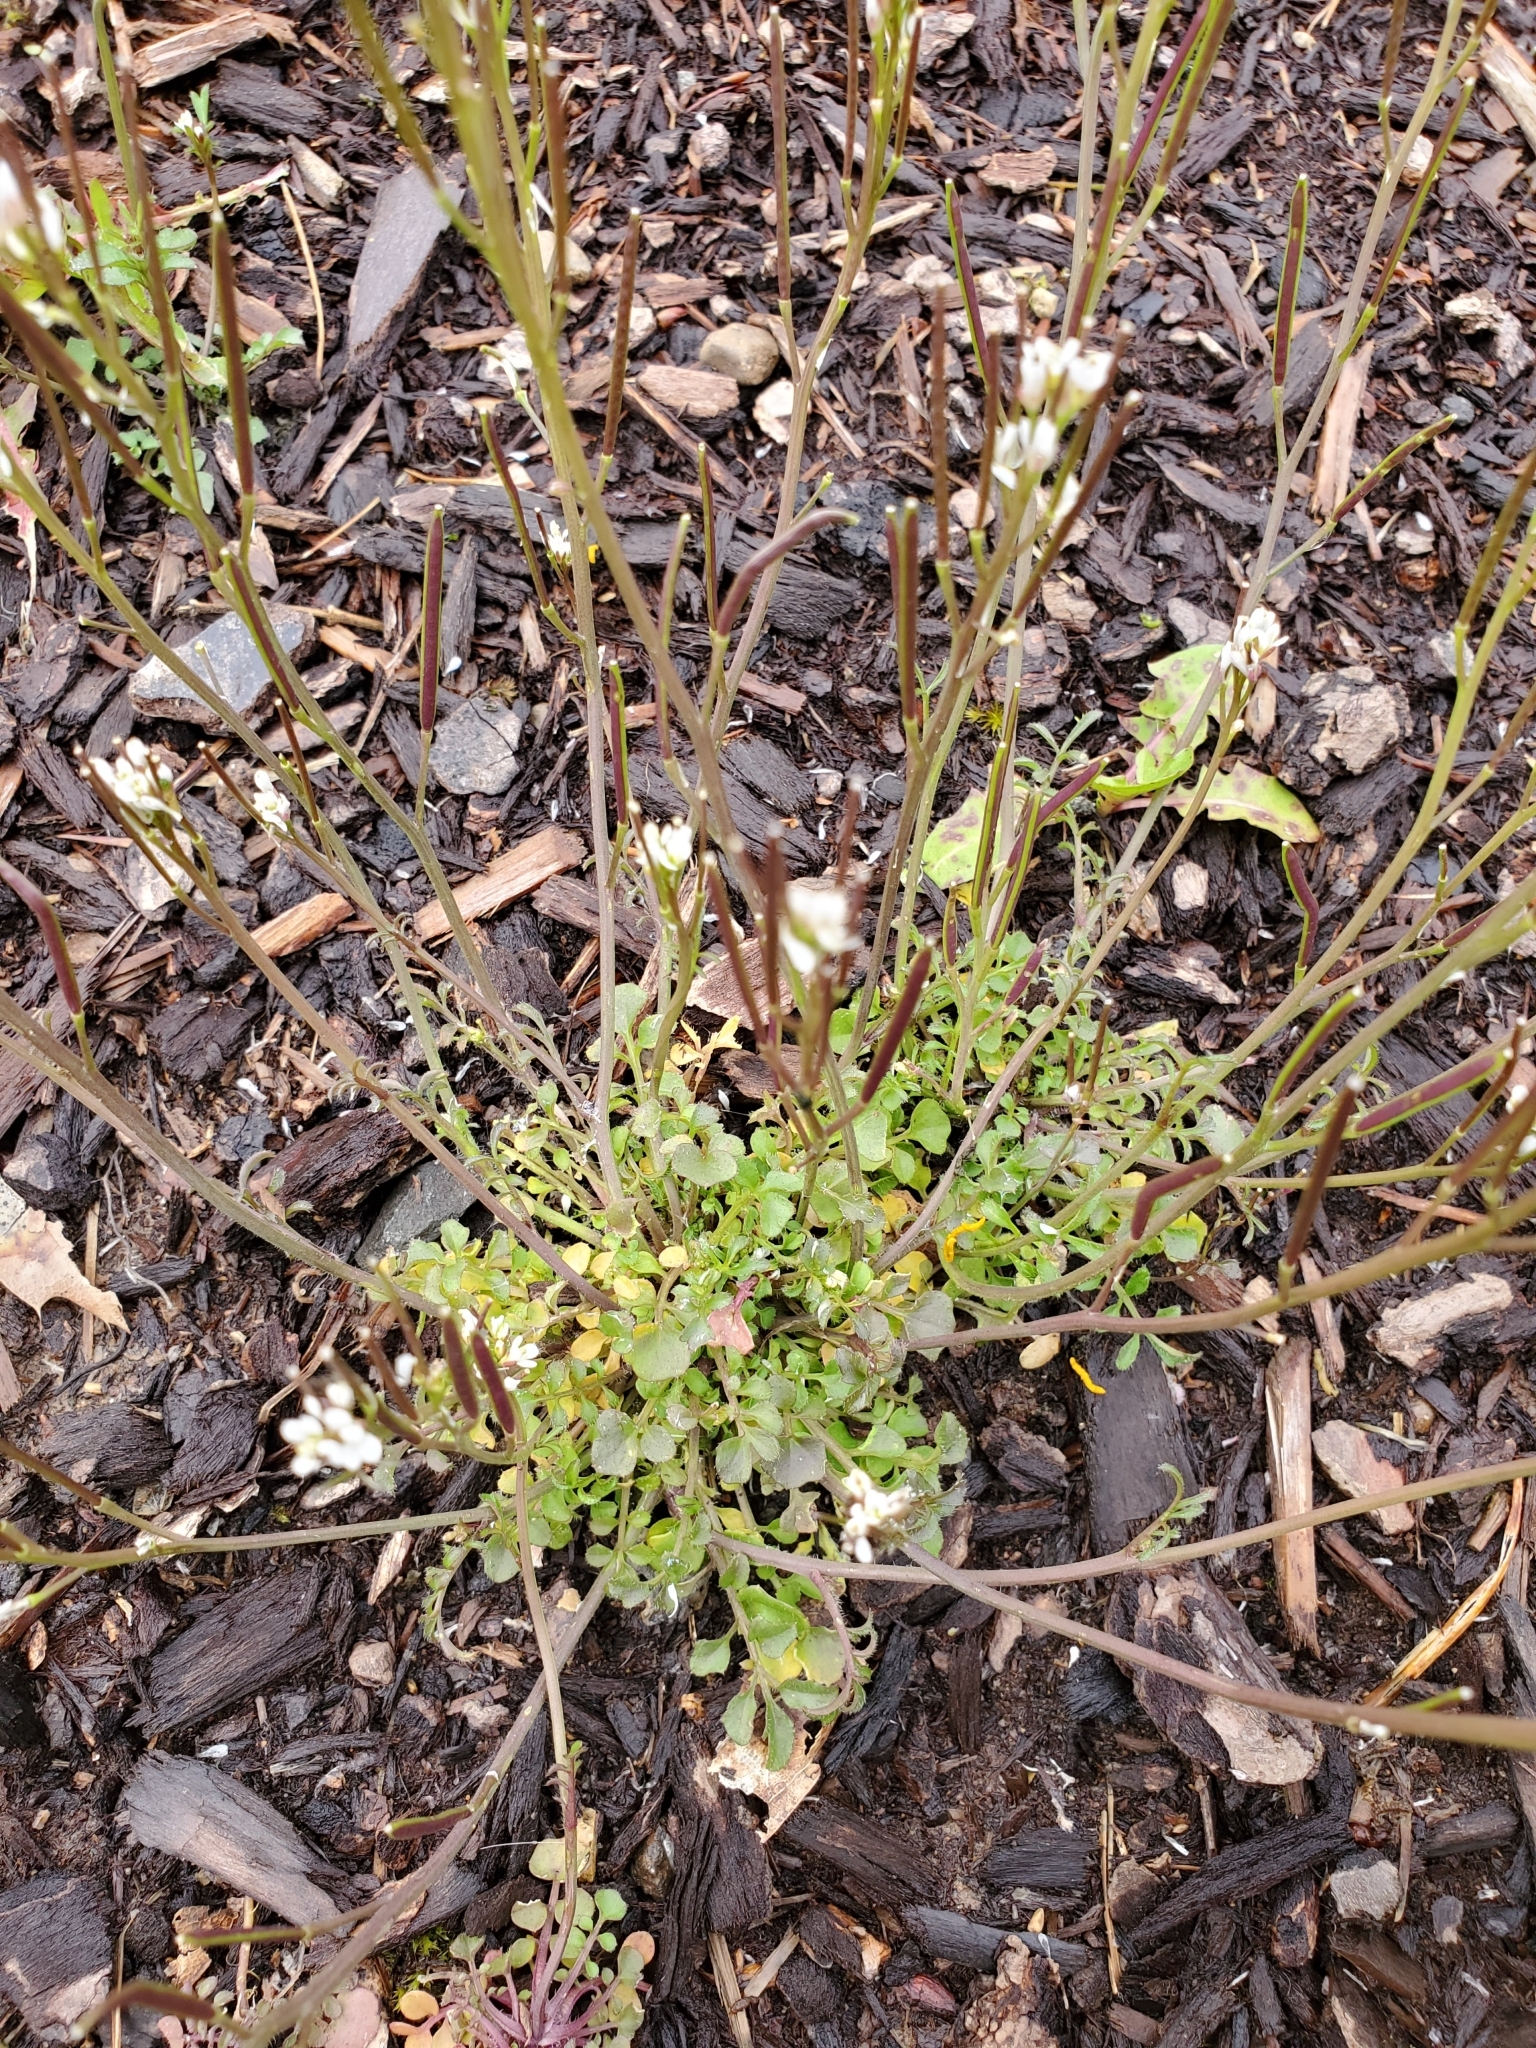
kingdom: Plantae
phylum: Tracheophyta
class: Magnoliopsida
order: Brassicales
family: Brassicaceae
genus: Cardamine
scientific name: Cardamine hirsuta
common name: Hairy bittercress
